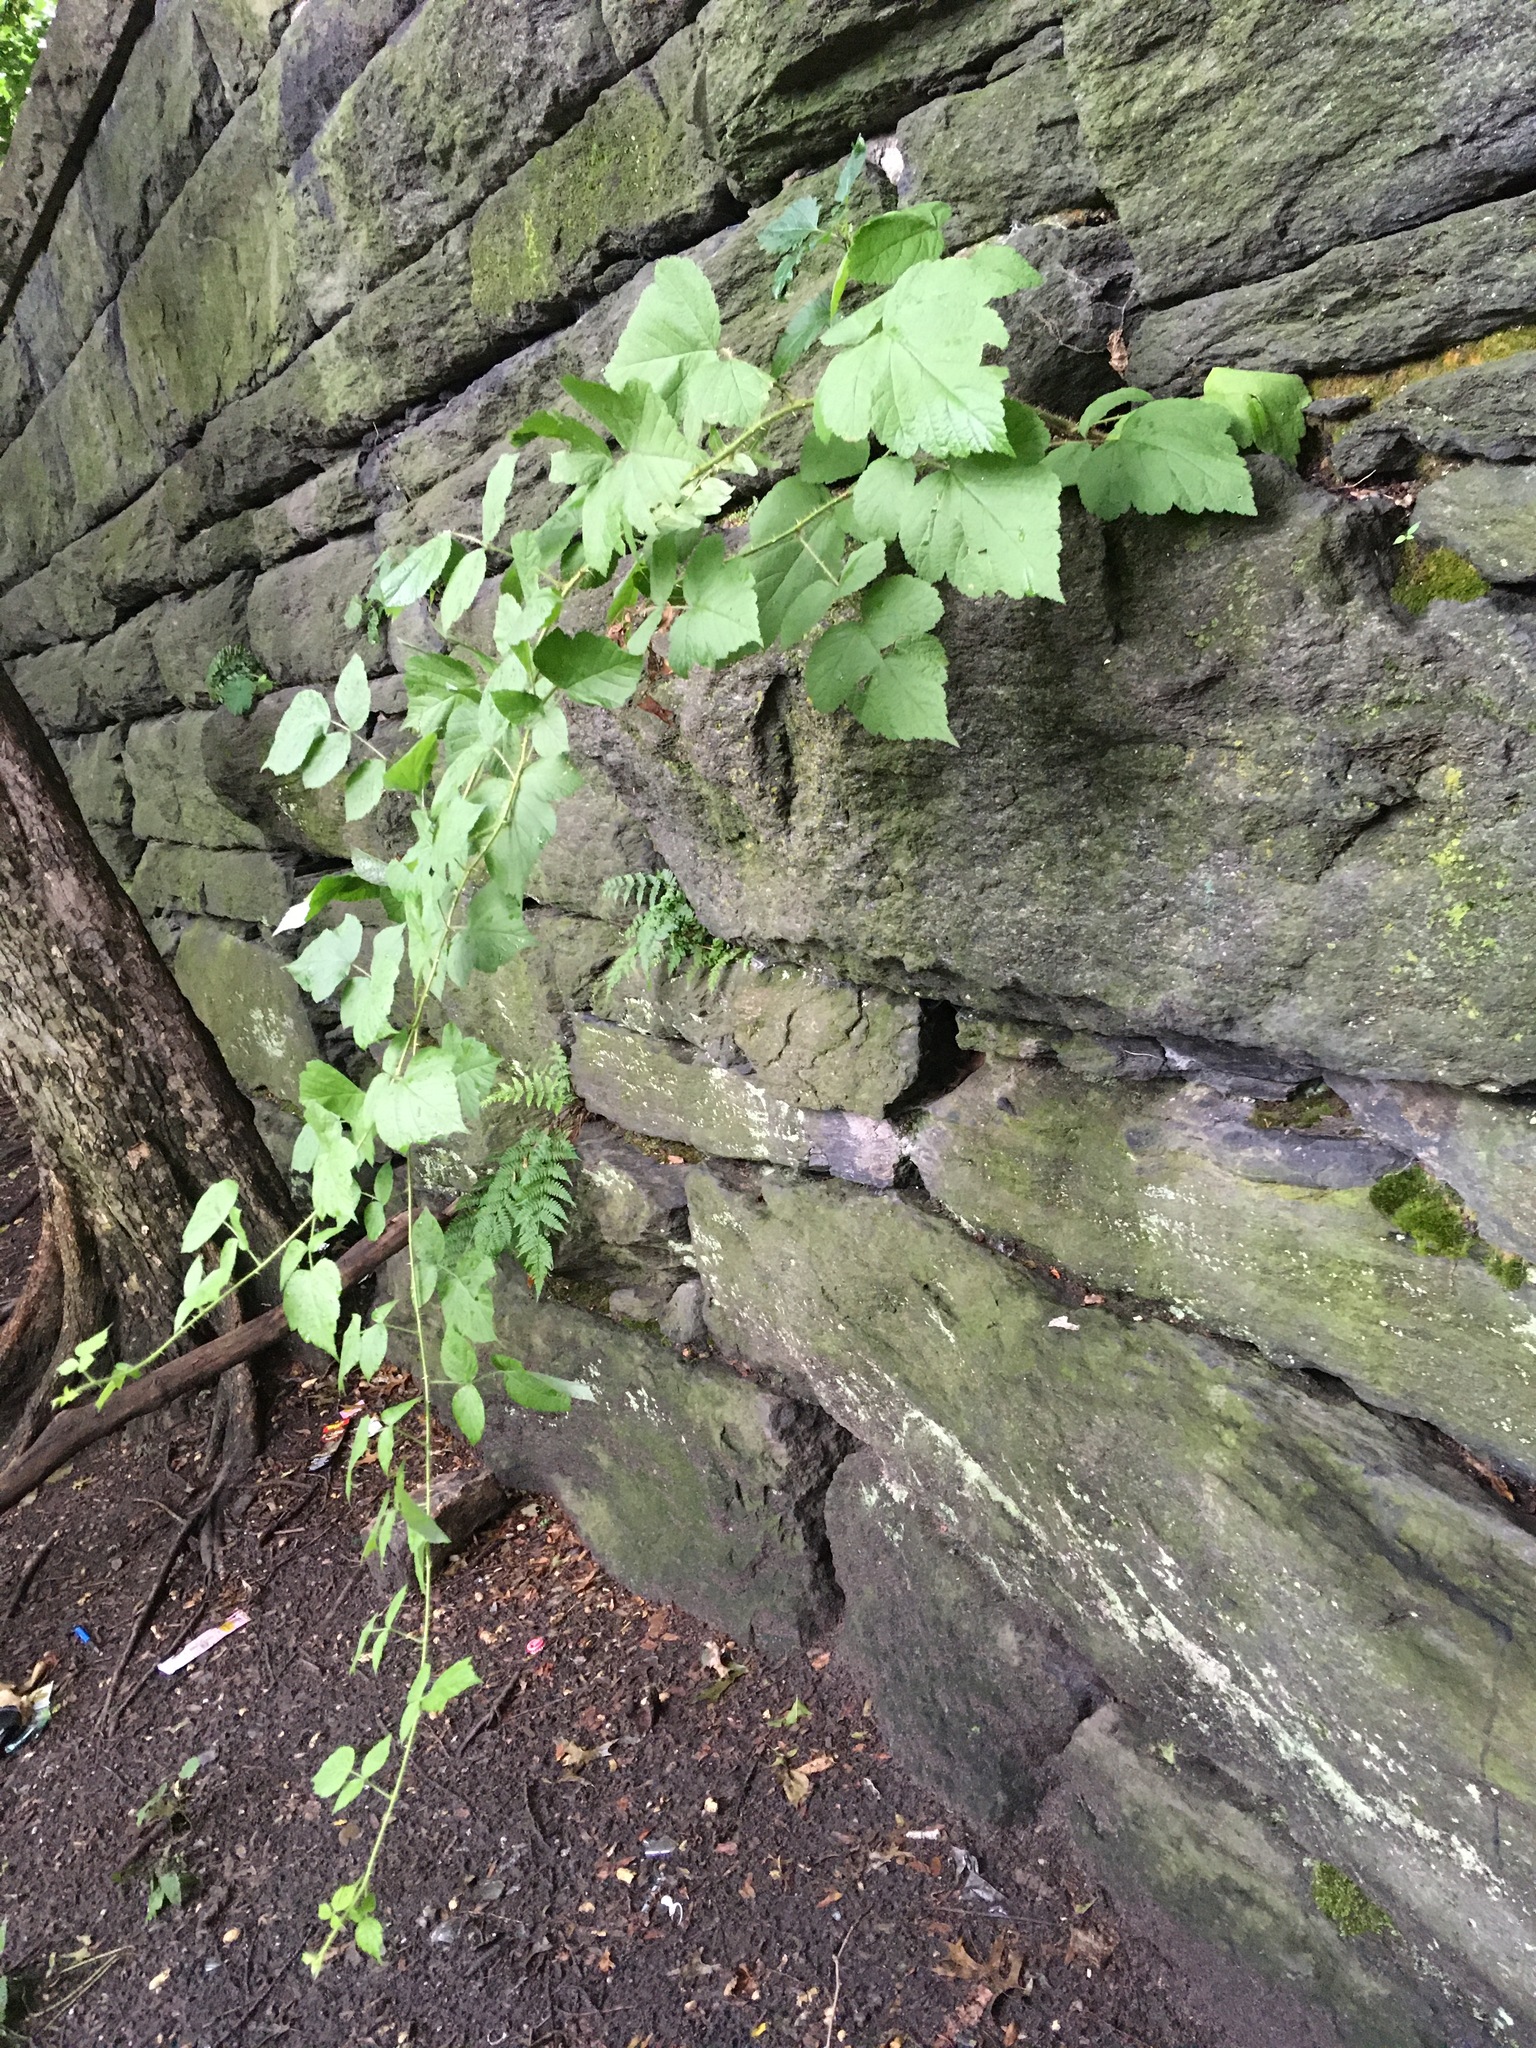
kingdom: Plantae
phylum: Tracheophyta
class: Magnoliopsida
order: Rosales
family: Rosaceae
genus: Rubus
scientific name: Rubus phoenicolasius
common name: Japanese wineberry
